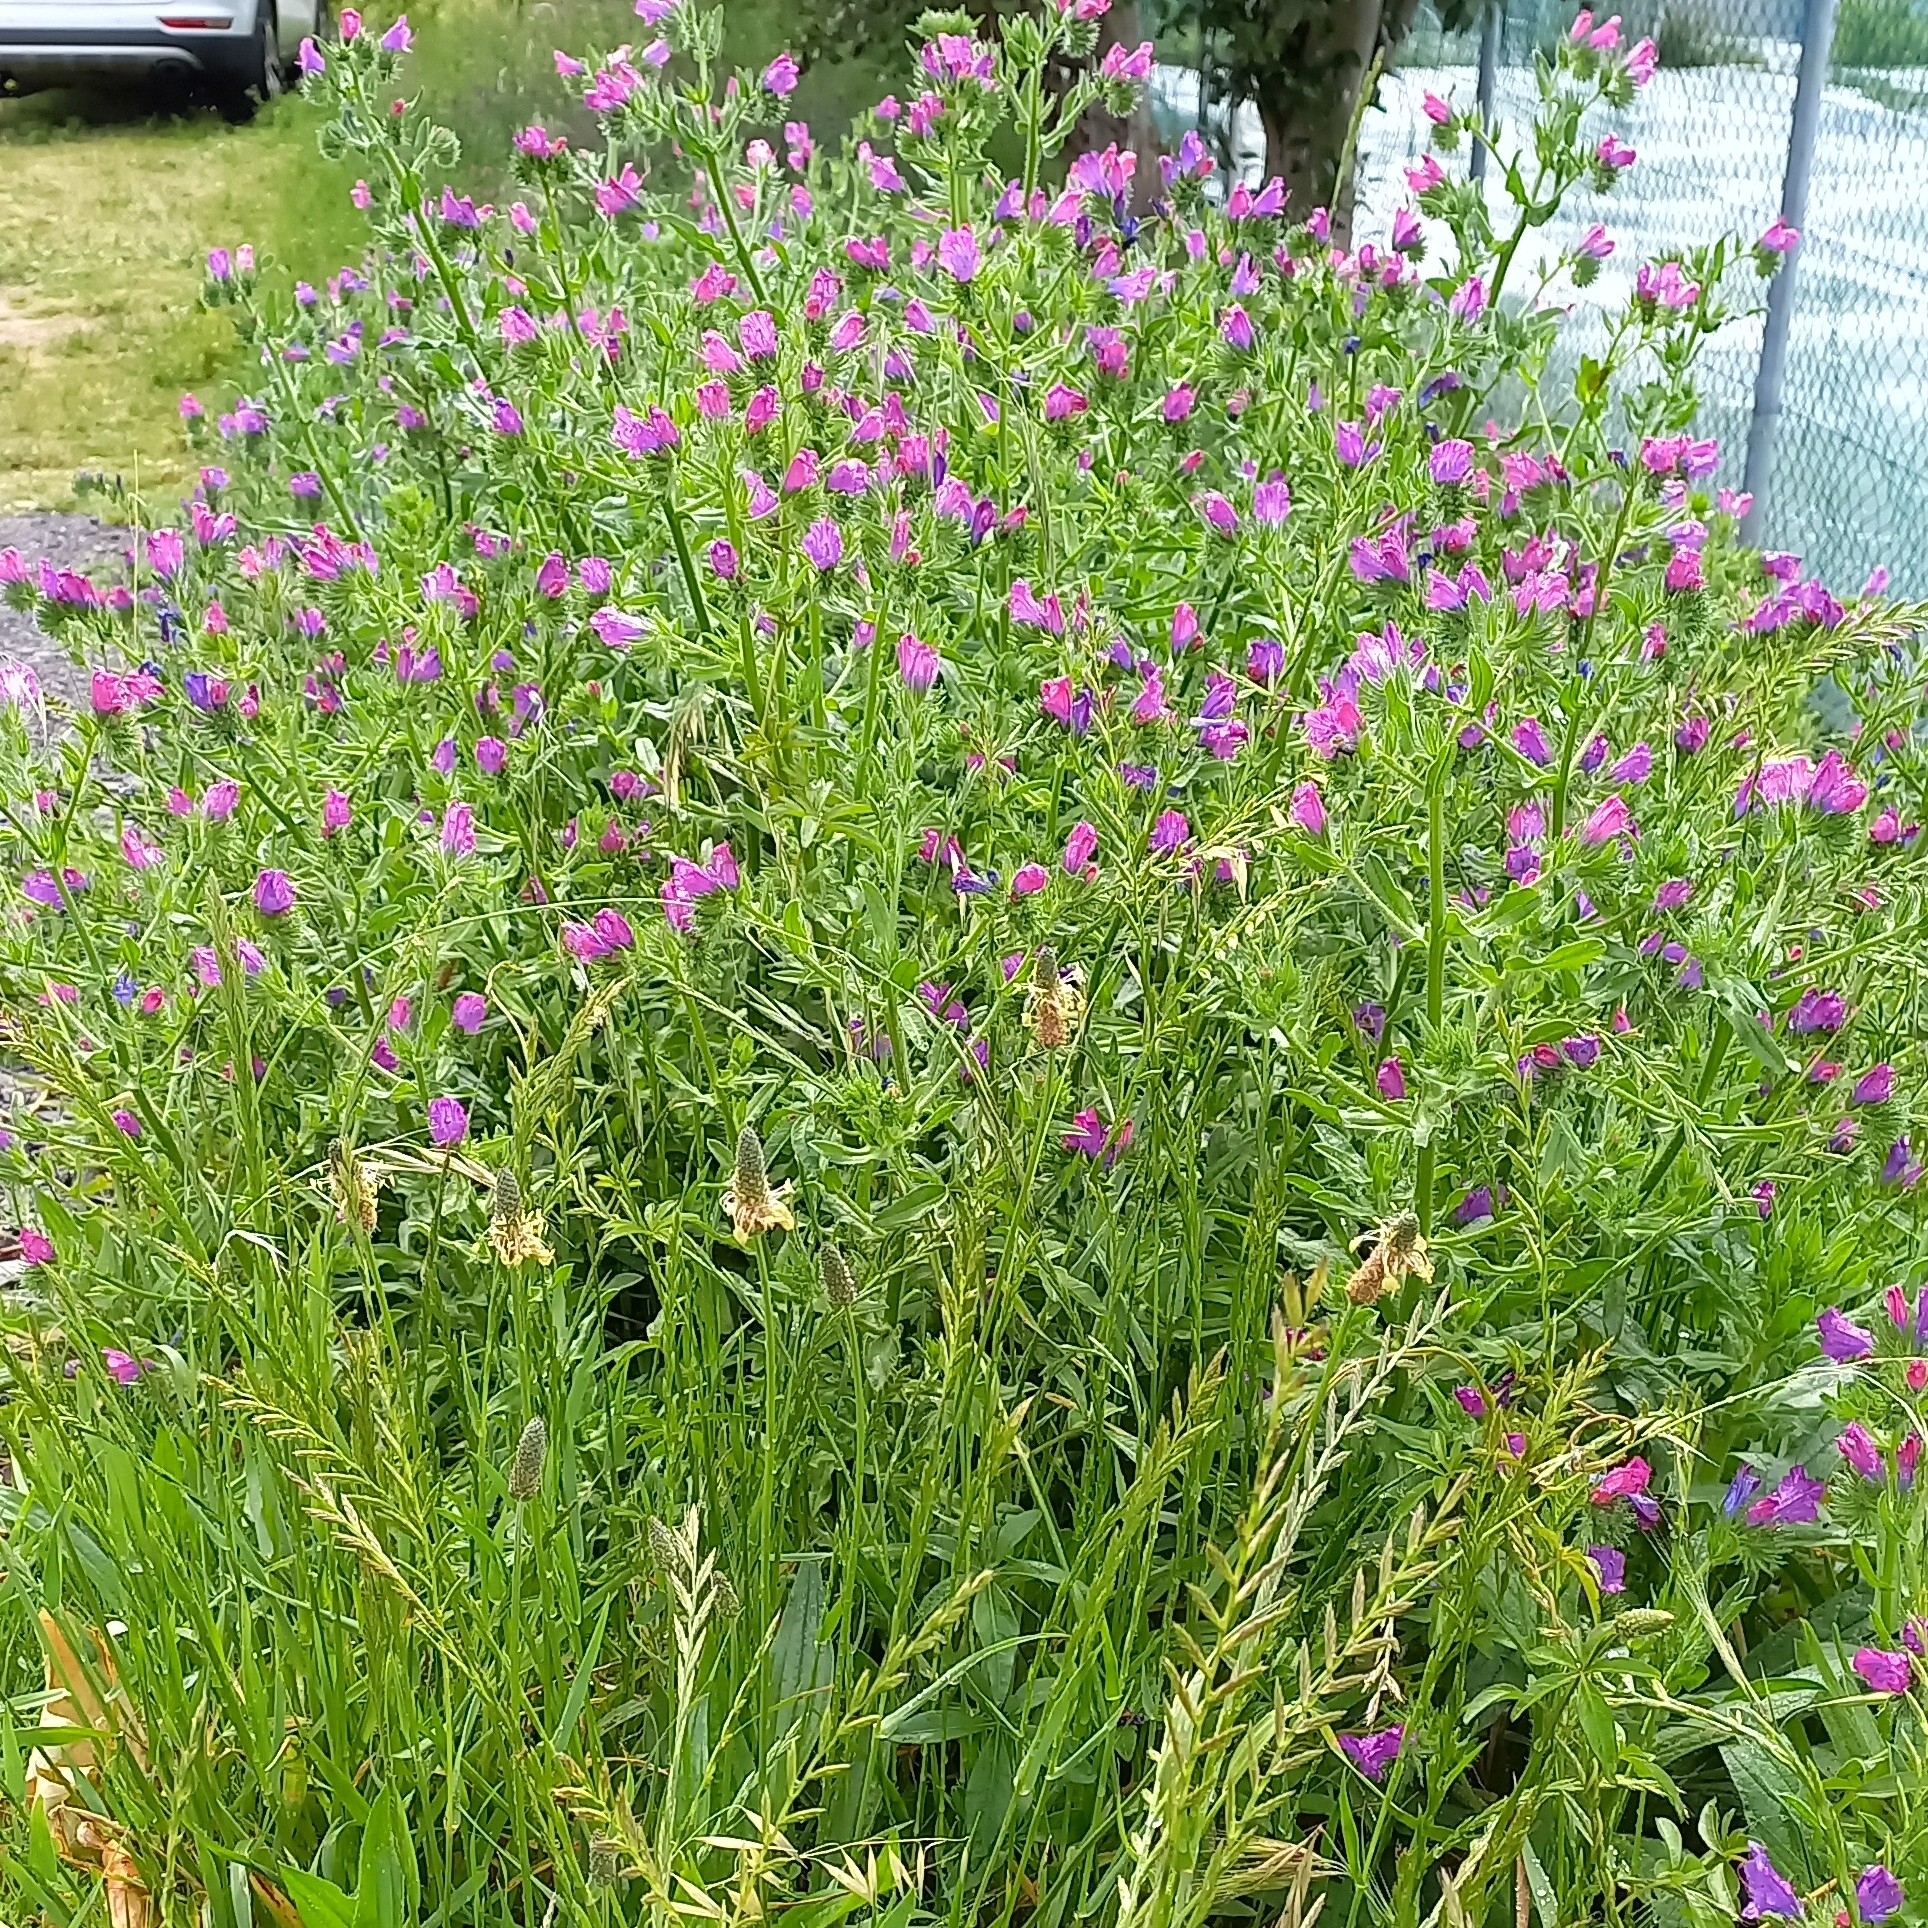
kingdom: Plantae
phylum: Tracheophyta
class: Magnoliopsida
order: Boraginales
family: Boraginaceae
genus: Echium
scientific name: Echium plantagineum
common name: Purple viper's-bugloss
